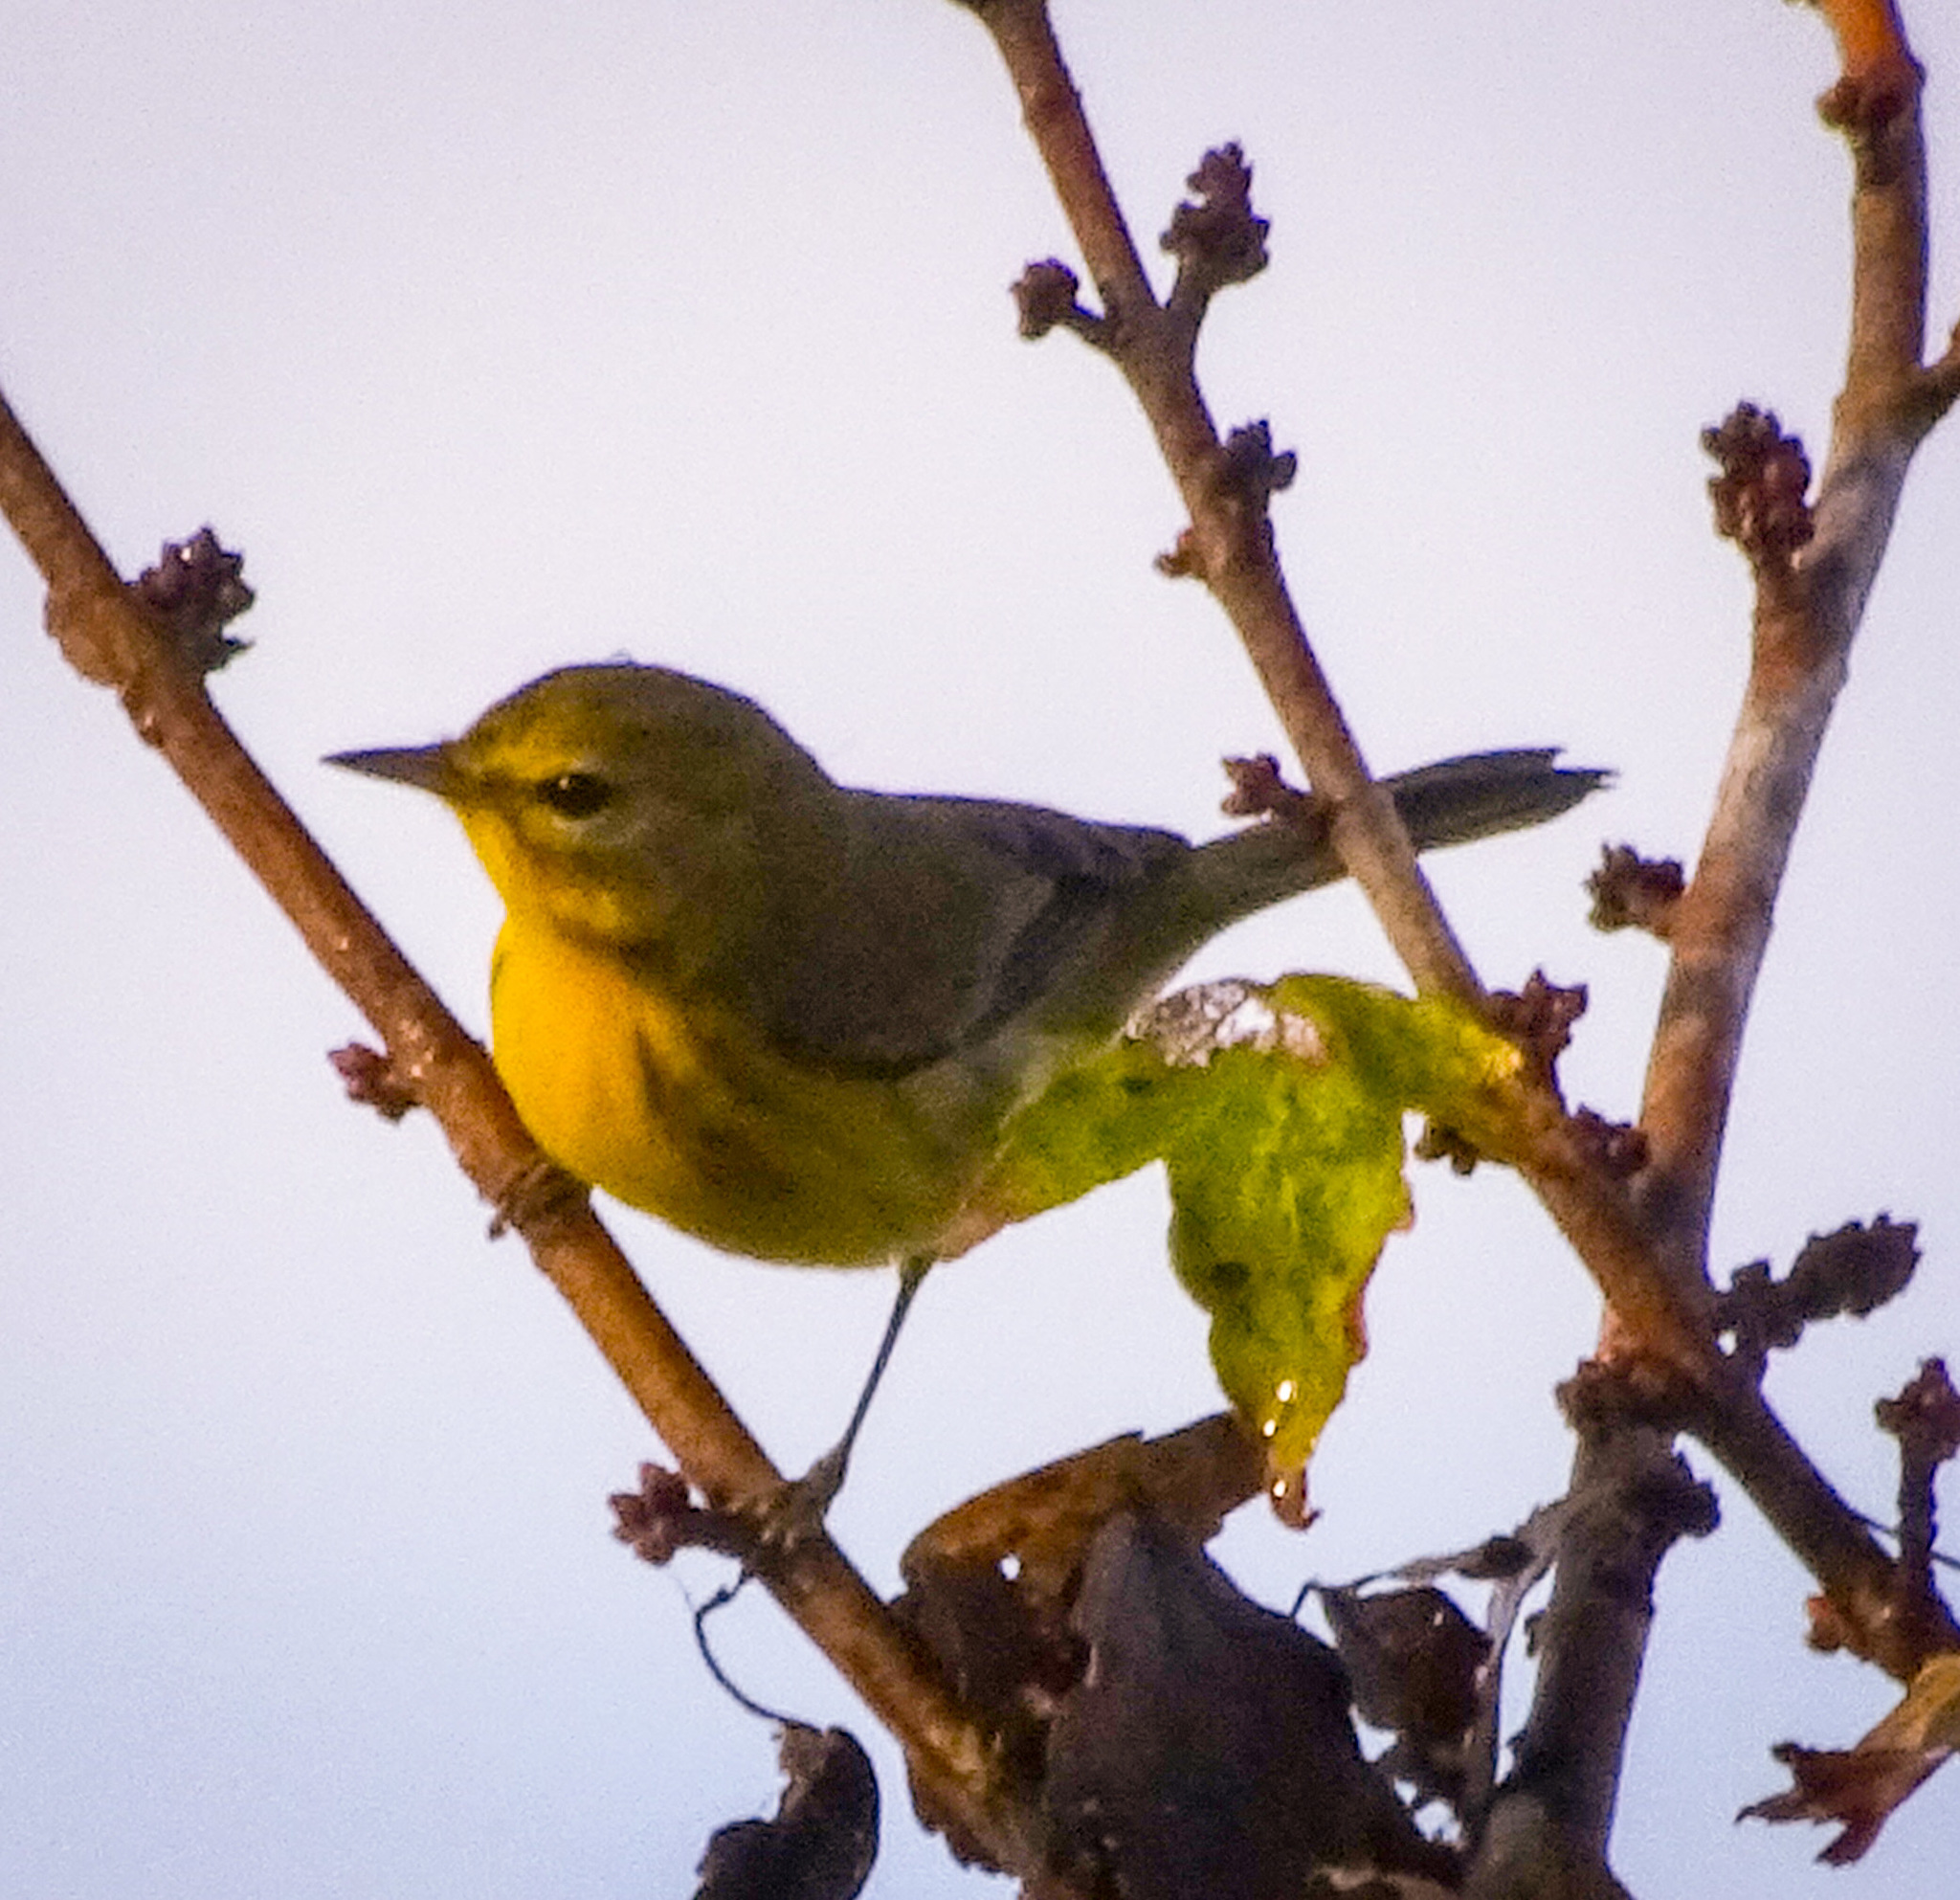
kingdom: Animalia
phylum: Chordata
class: Aves
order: Passeriformes
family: Parulidae
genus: Setophaga
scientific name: Setophaga discolor
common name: Prairie warbler
